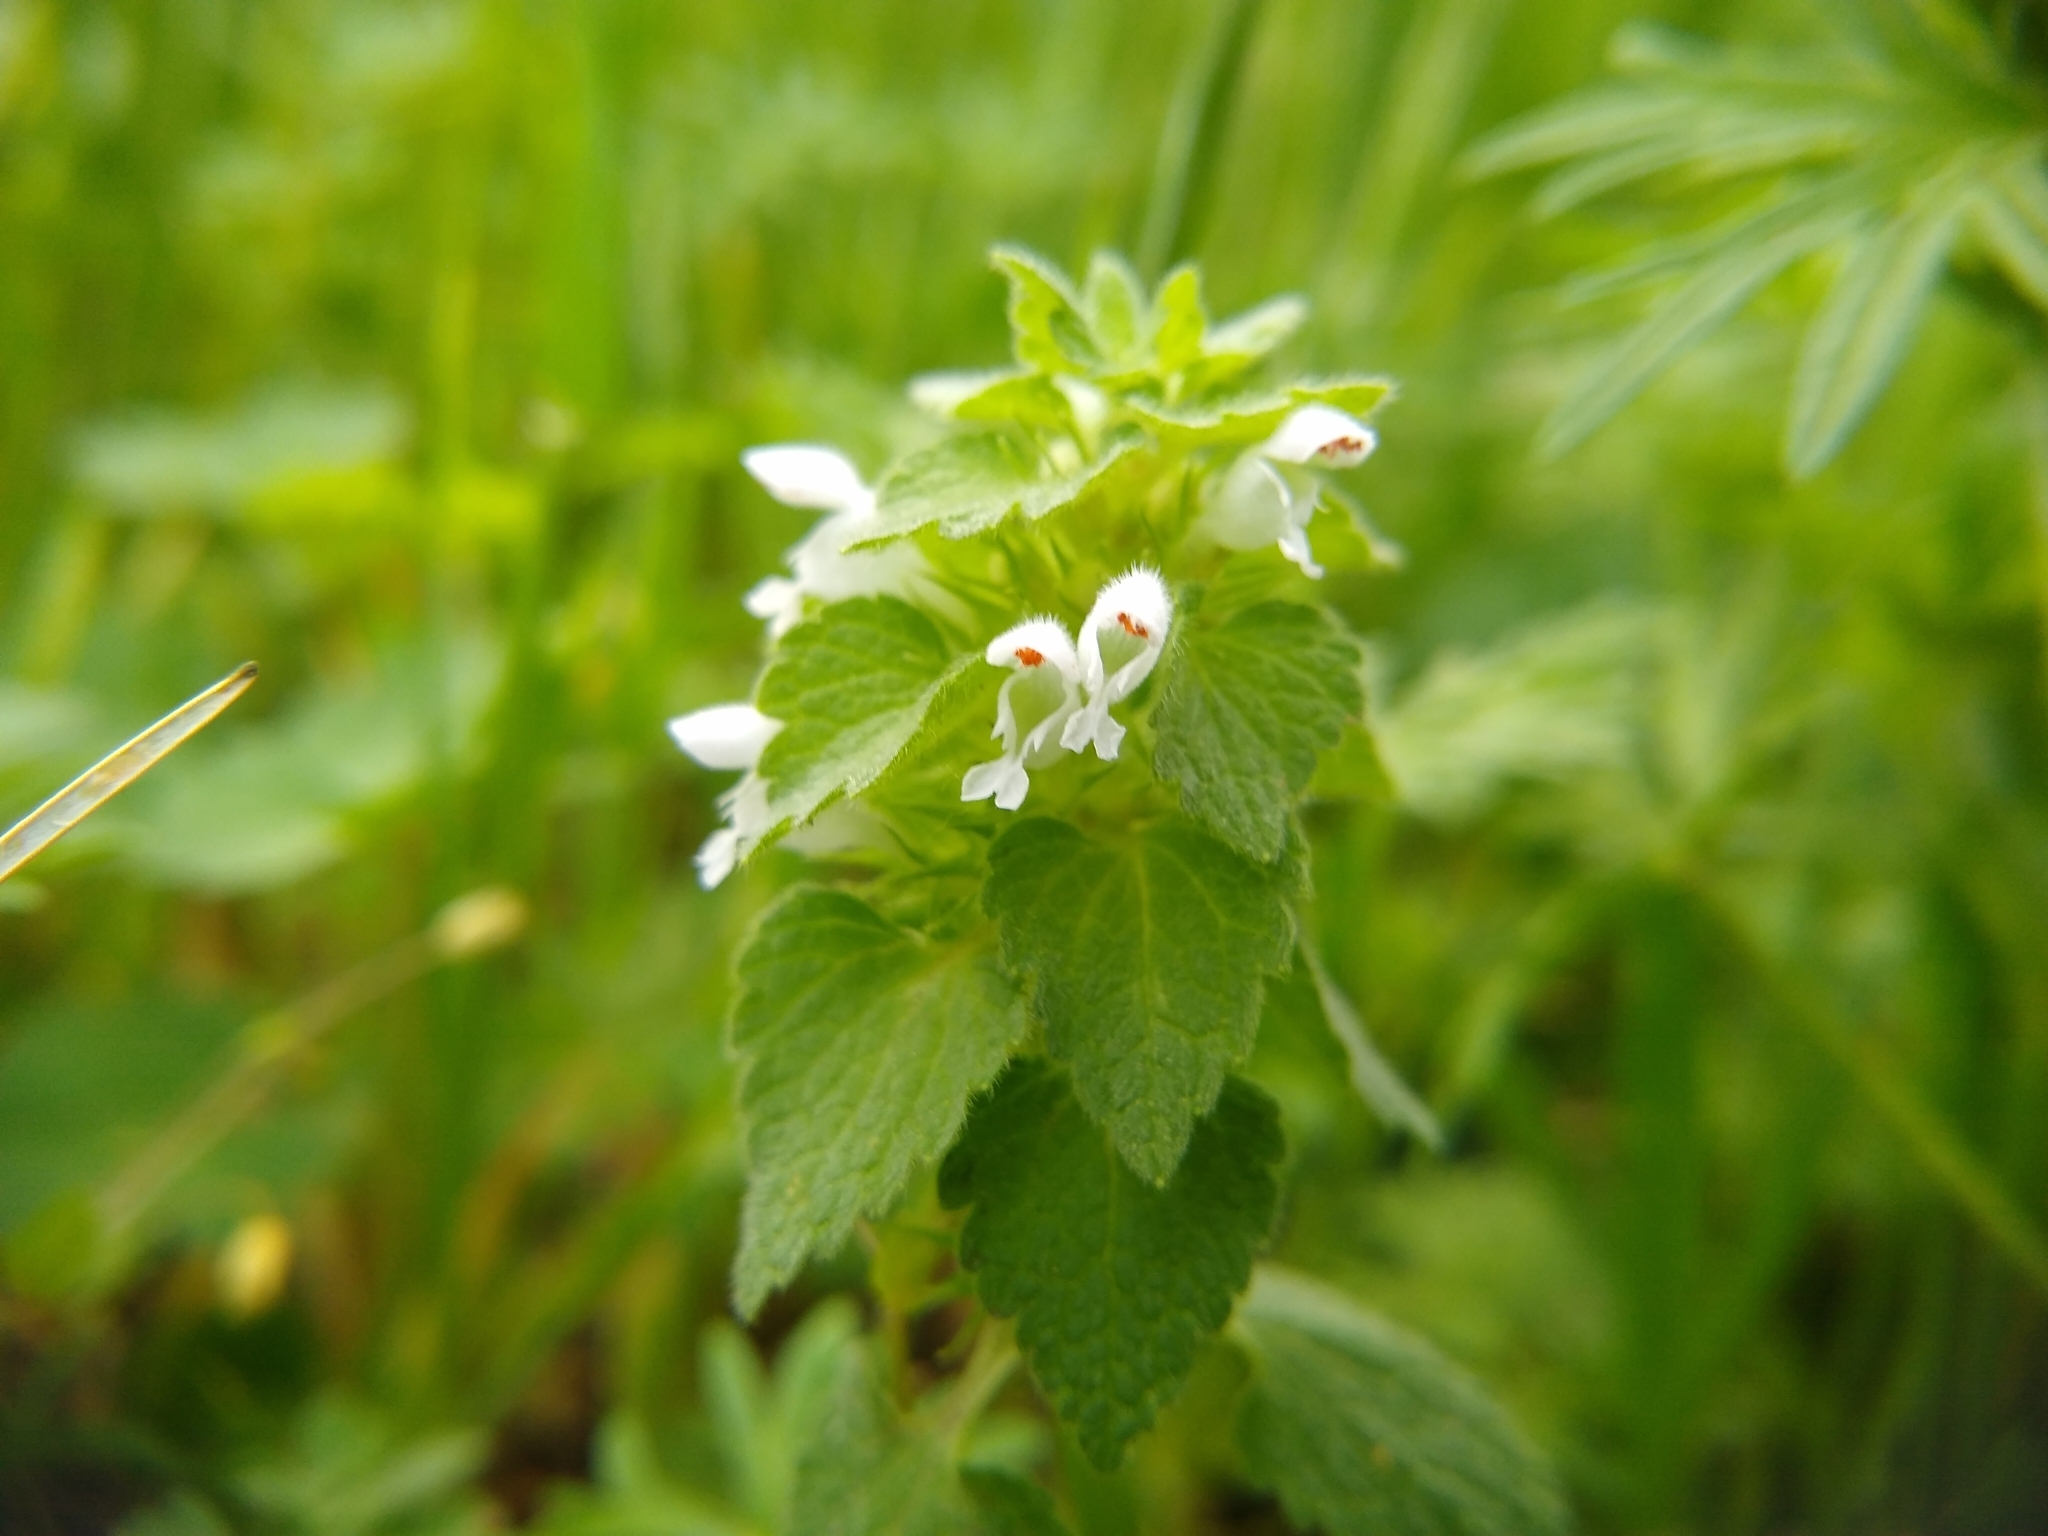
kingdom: Plantae
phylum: Tracheophyta
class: Magnoliopsida
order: Lamiales
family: Lamiaceae
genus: Lamium
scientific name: Lamium purpureum
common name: Red dead-nettle
